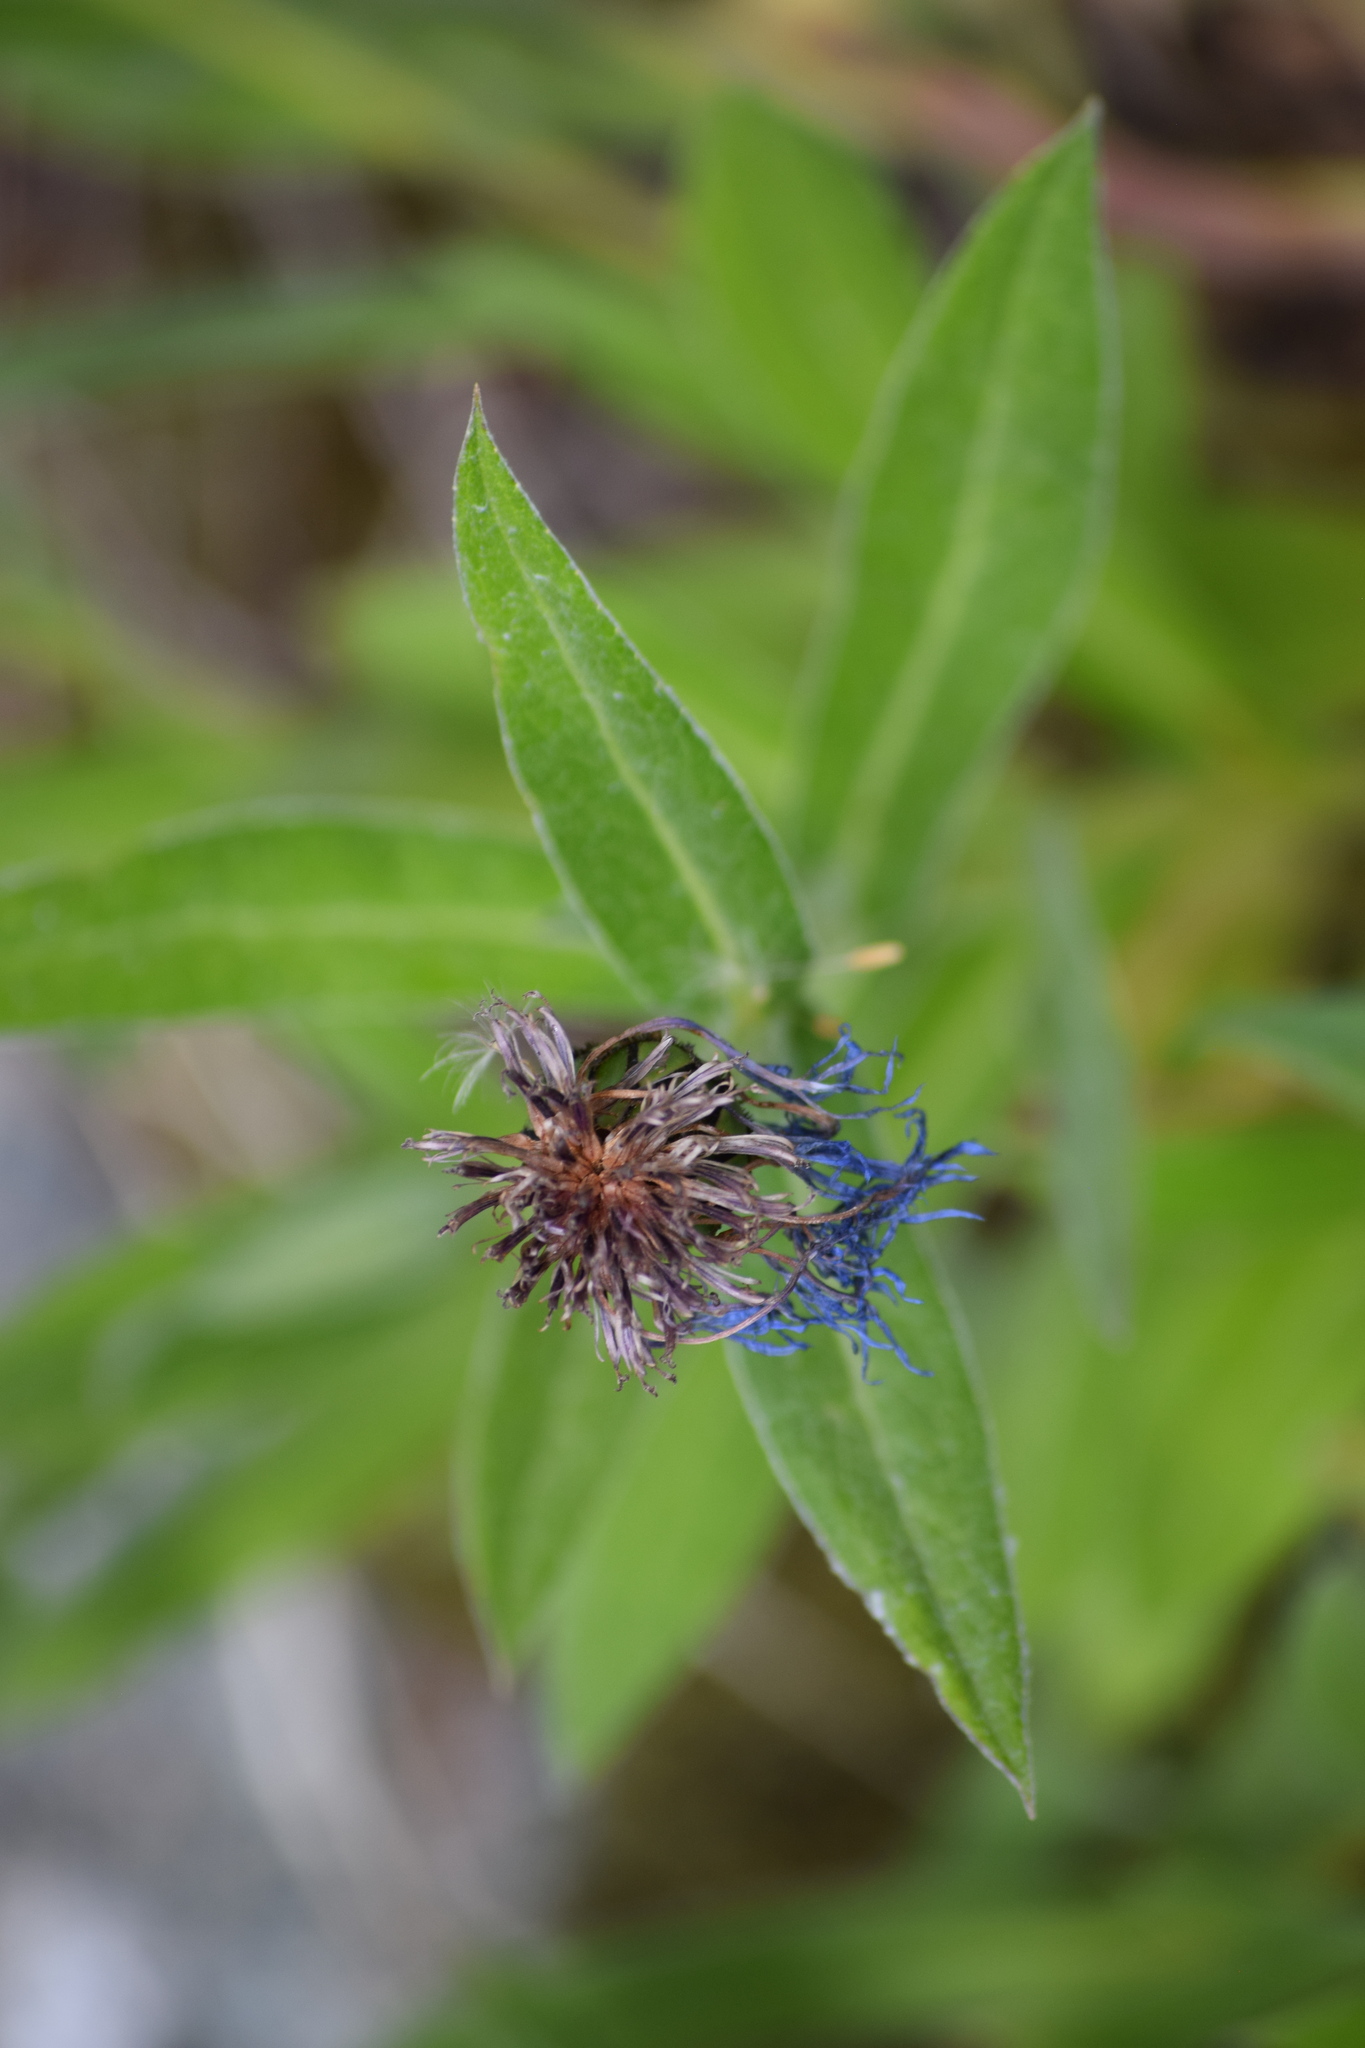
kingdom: Plantae
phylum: Tracheophyta
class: Magnoliopsida
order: Asterales
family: Asteraceae
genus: Centaurea
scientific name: Centaurea montana
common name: Perennial cornflower
